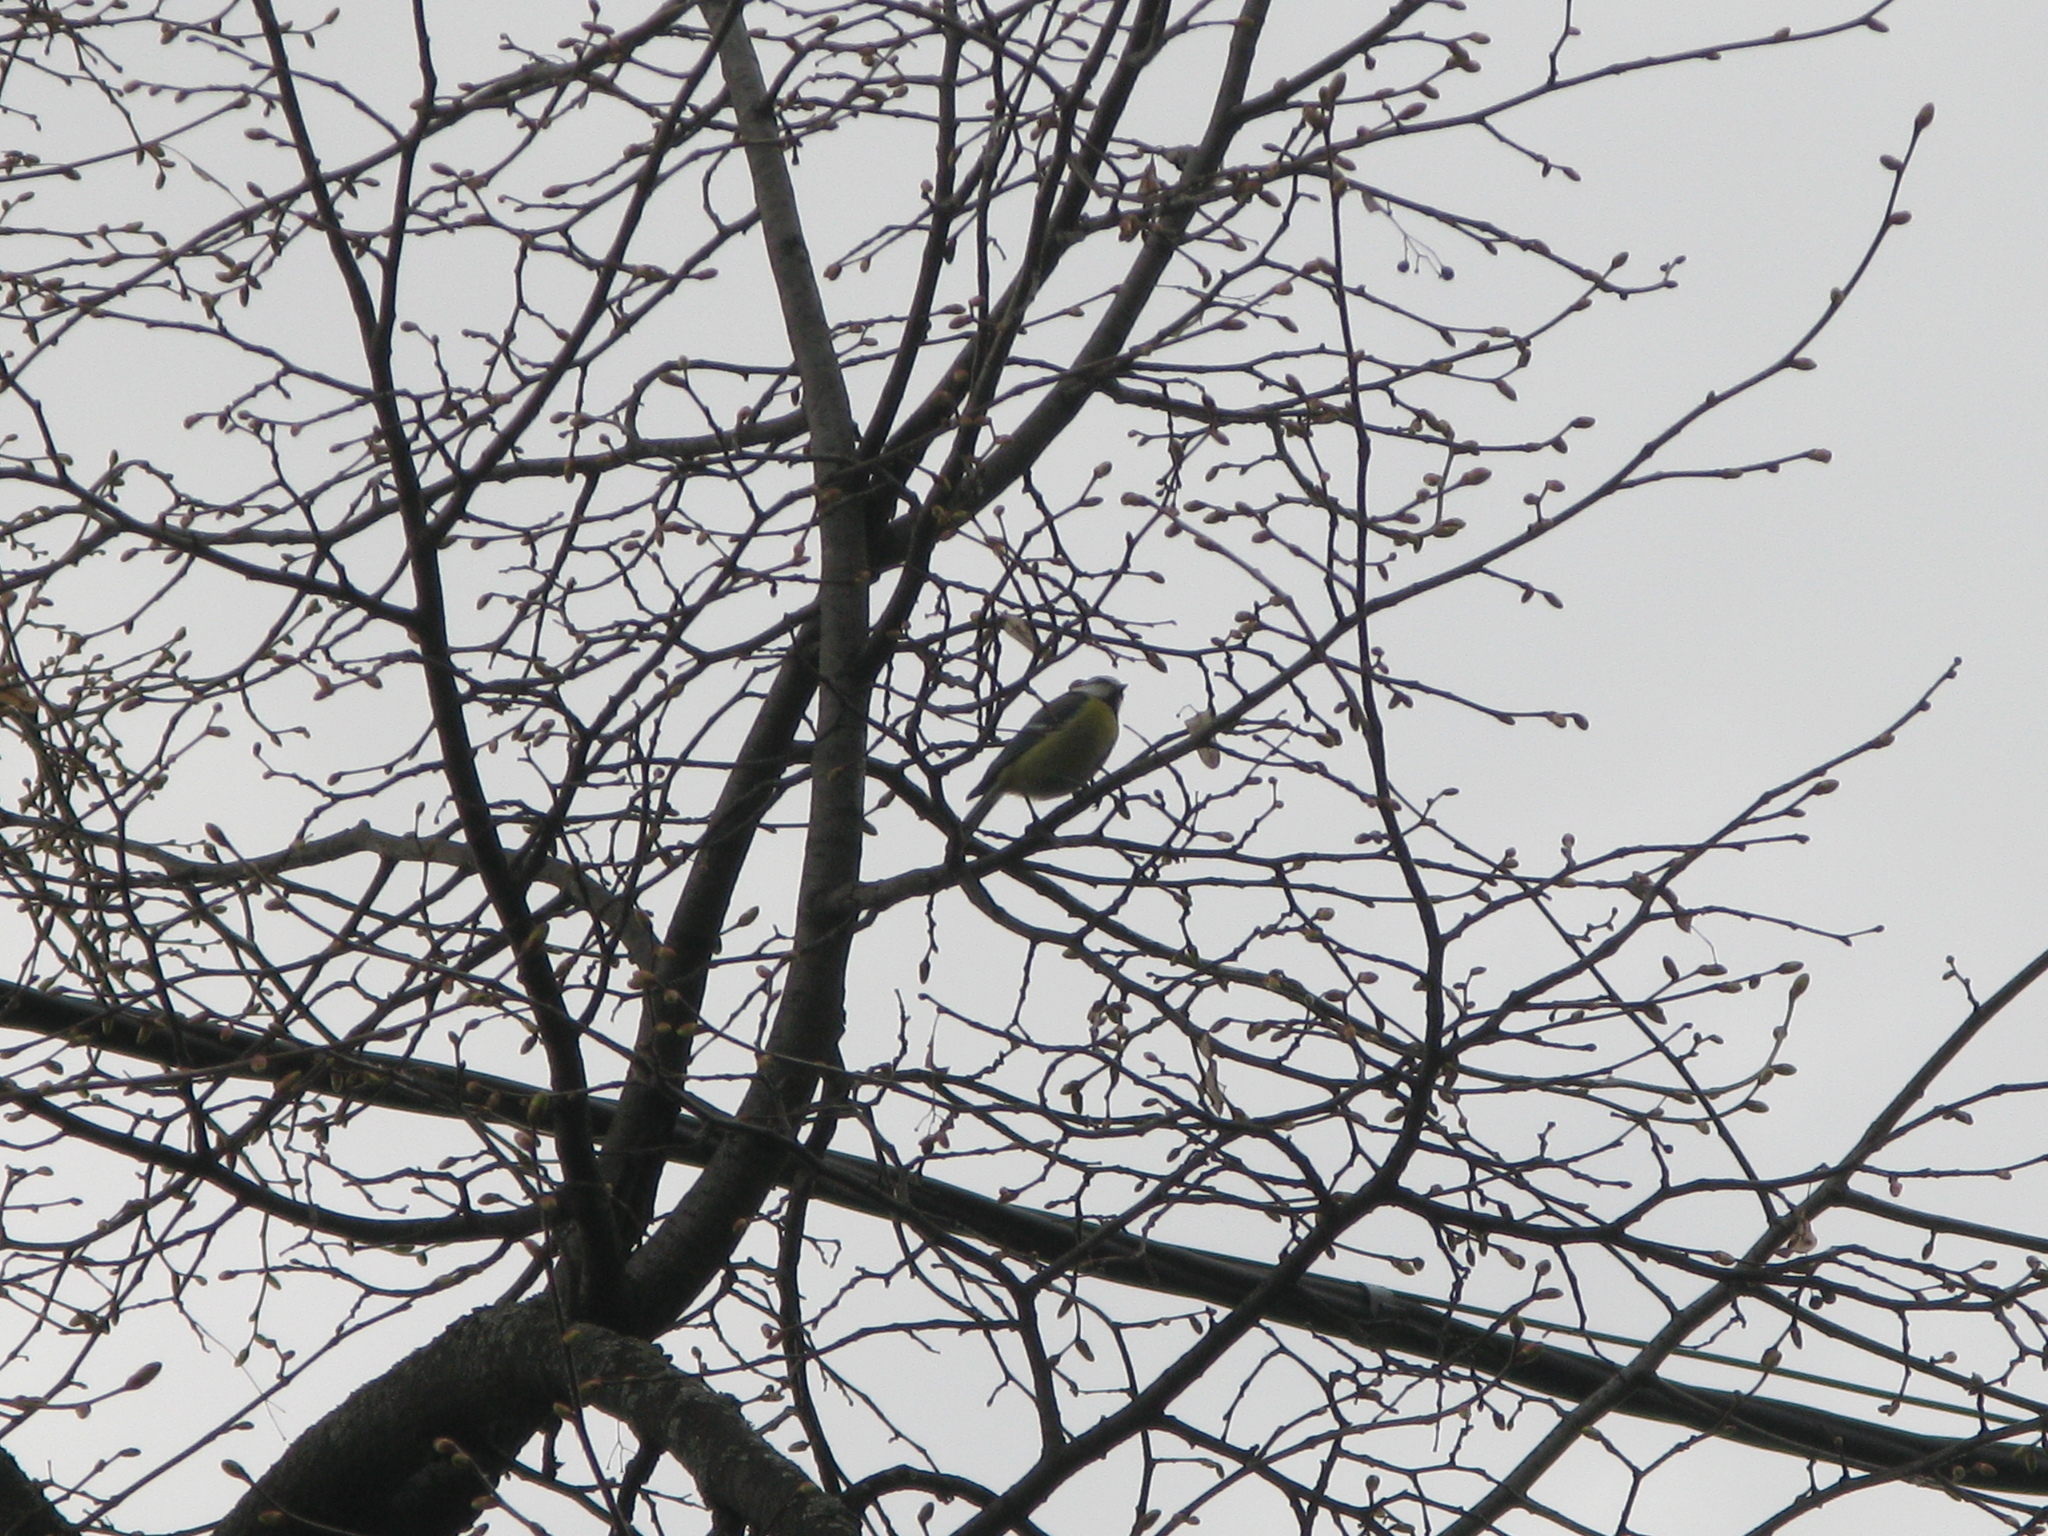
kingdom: Animalia
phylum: Chordata
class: Aves
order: Passeriformes
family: Paridae
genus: Cyanistes
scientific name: Cyanistes caeruleus
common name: Eurasian blue tit
